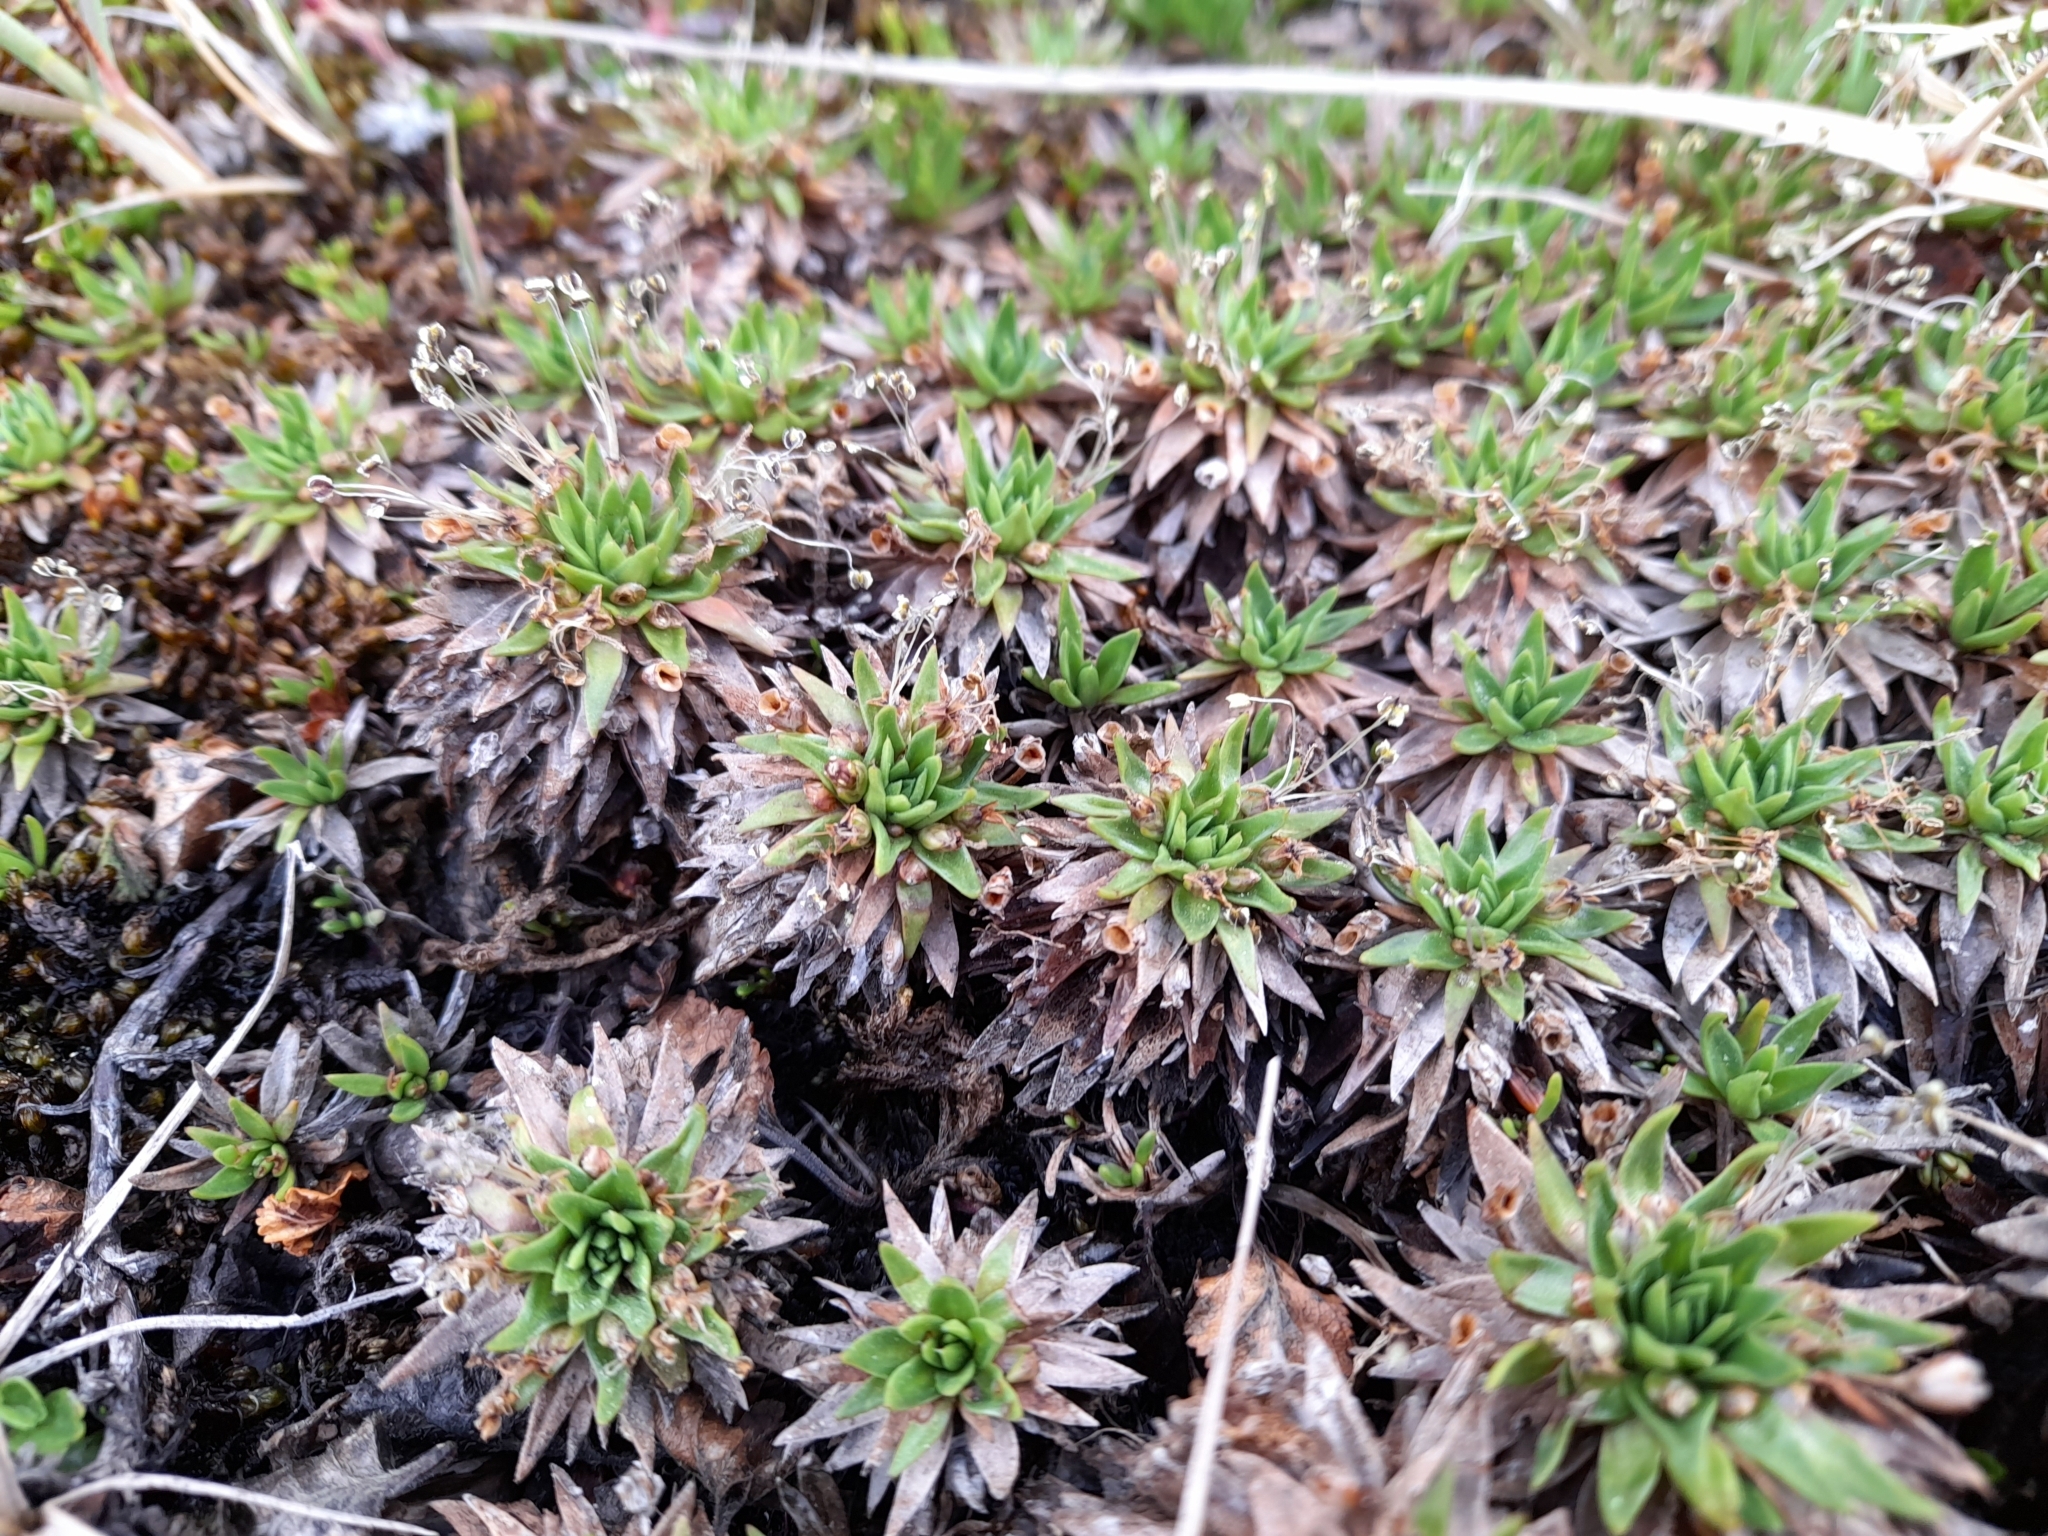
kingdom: Plantae
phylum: Tracheophyta
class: Magnoliopsida
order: Lamiales
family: Plantaginaceae
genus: Plantago
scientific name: Plantago barbata
